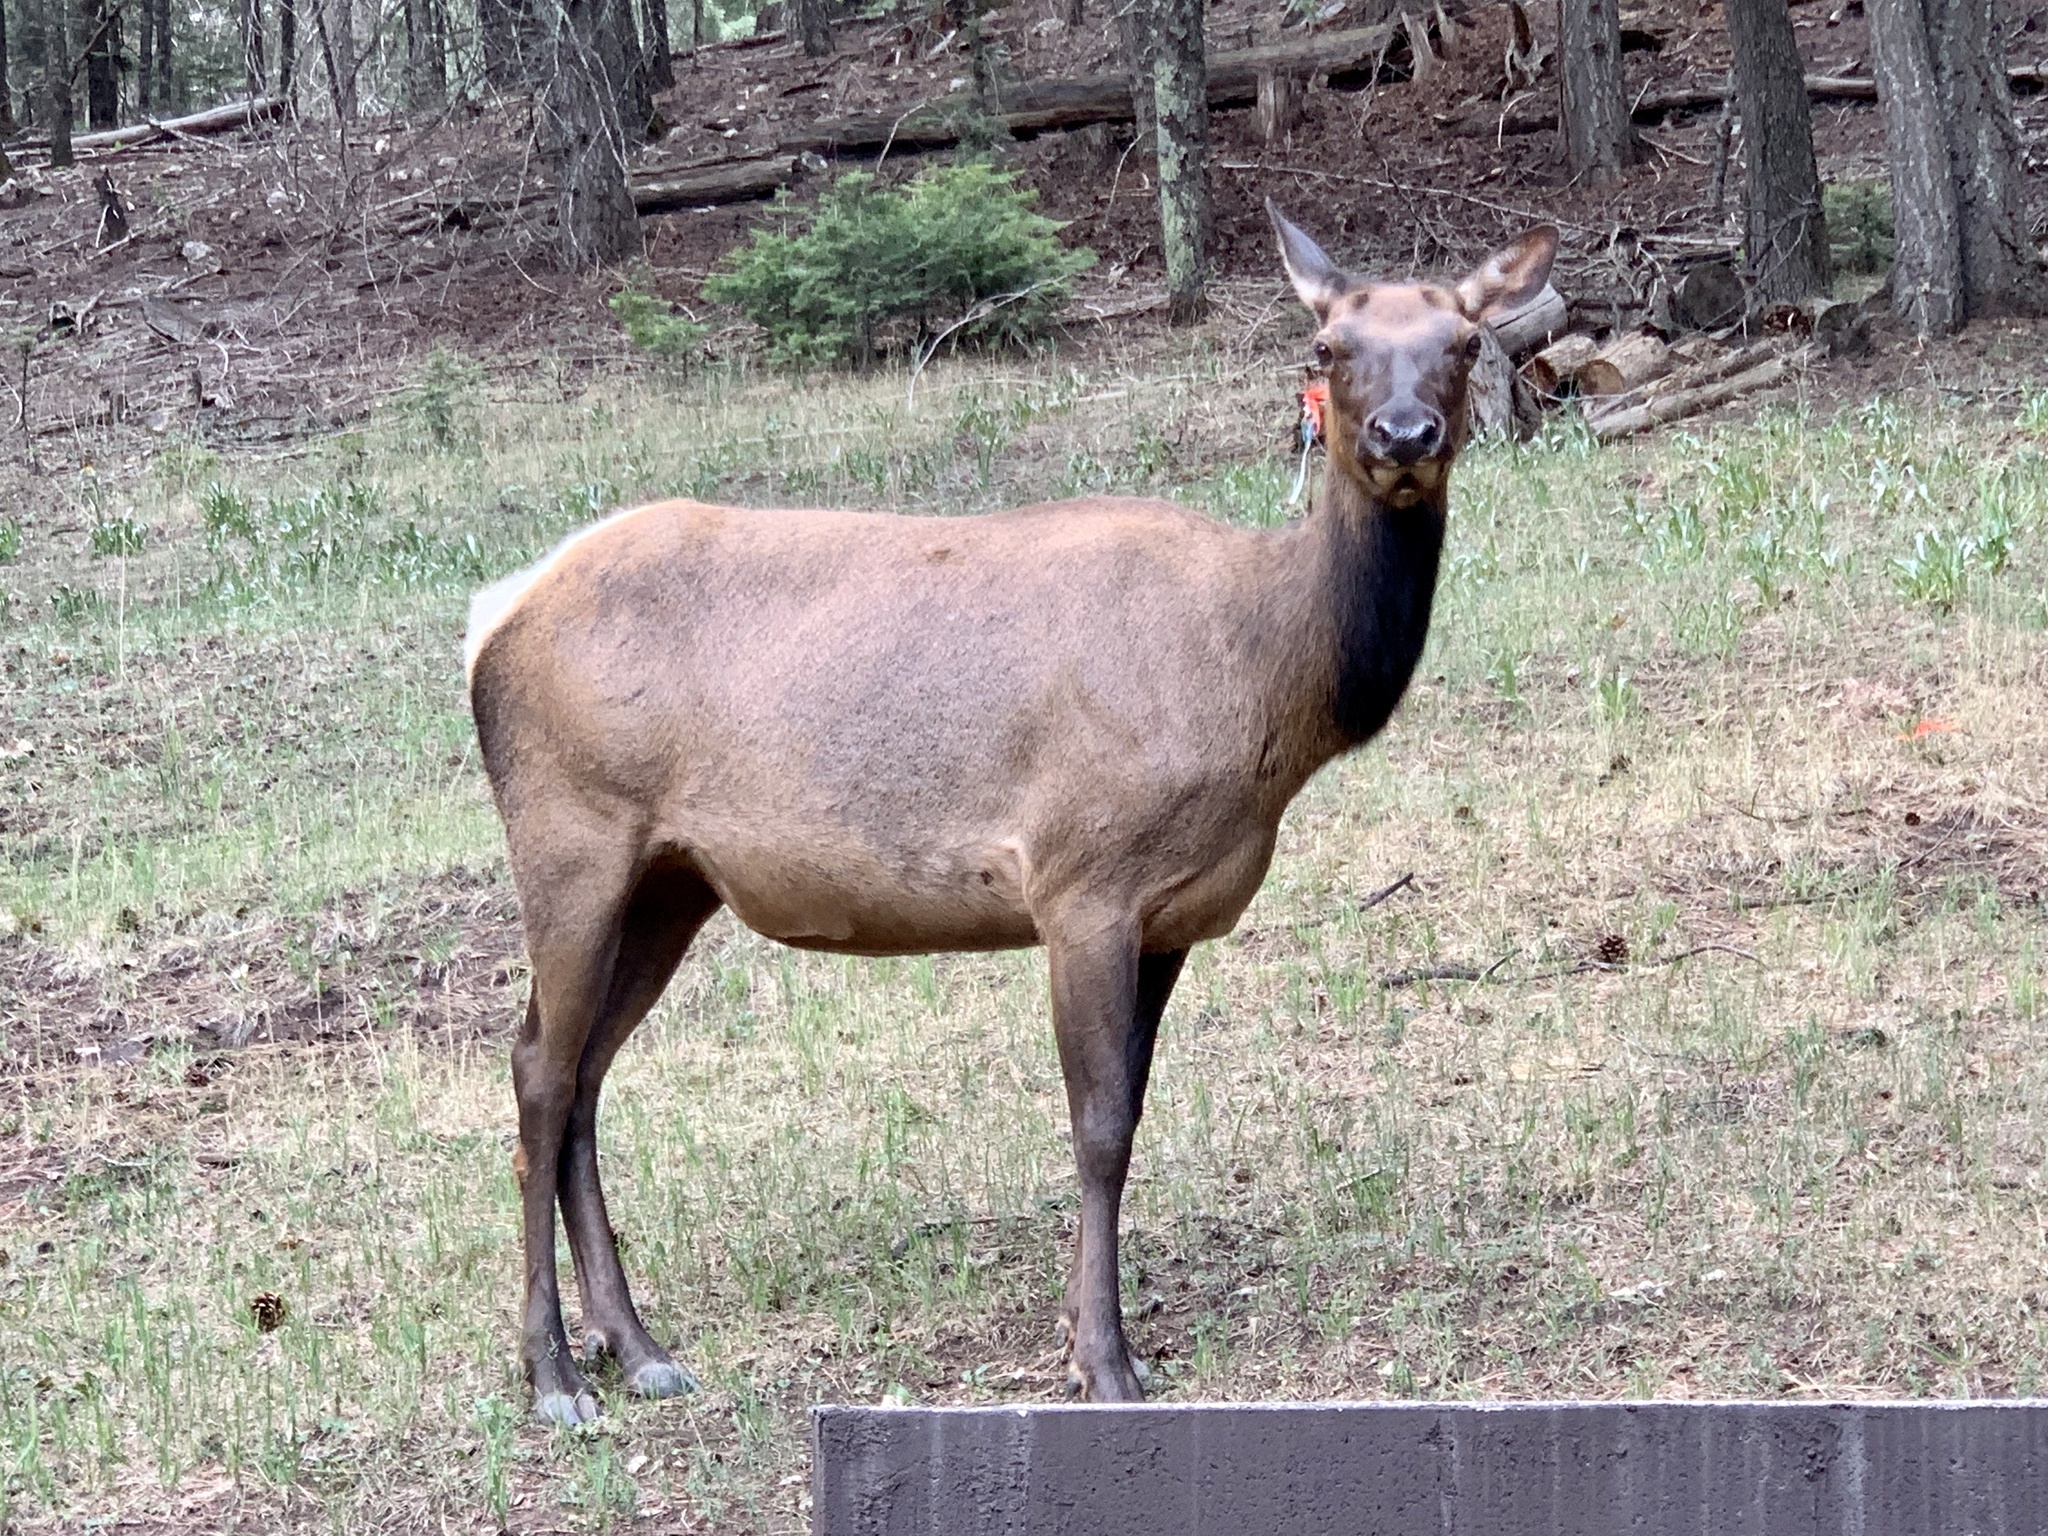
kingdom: Animalia
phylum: Chordata
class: Mammalia
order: Artiodactyla
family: Cervidae
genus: Cervus
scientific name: Cervus elaphus
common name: Red deer
